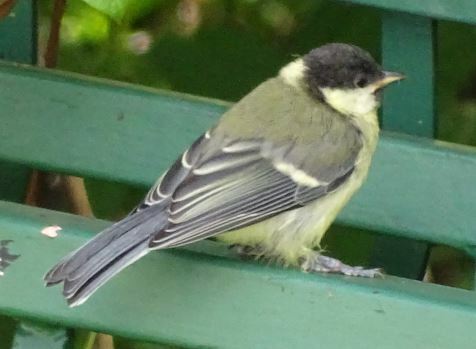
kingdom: Animalia
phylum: Chordata
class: Aves
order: Passeriformes
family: Paridae
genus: Parus
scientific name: Parus major
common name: Great tit
